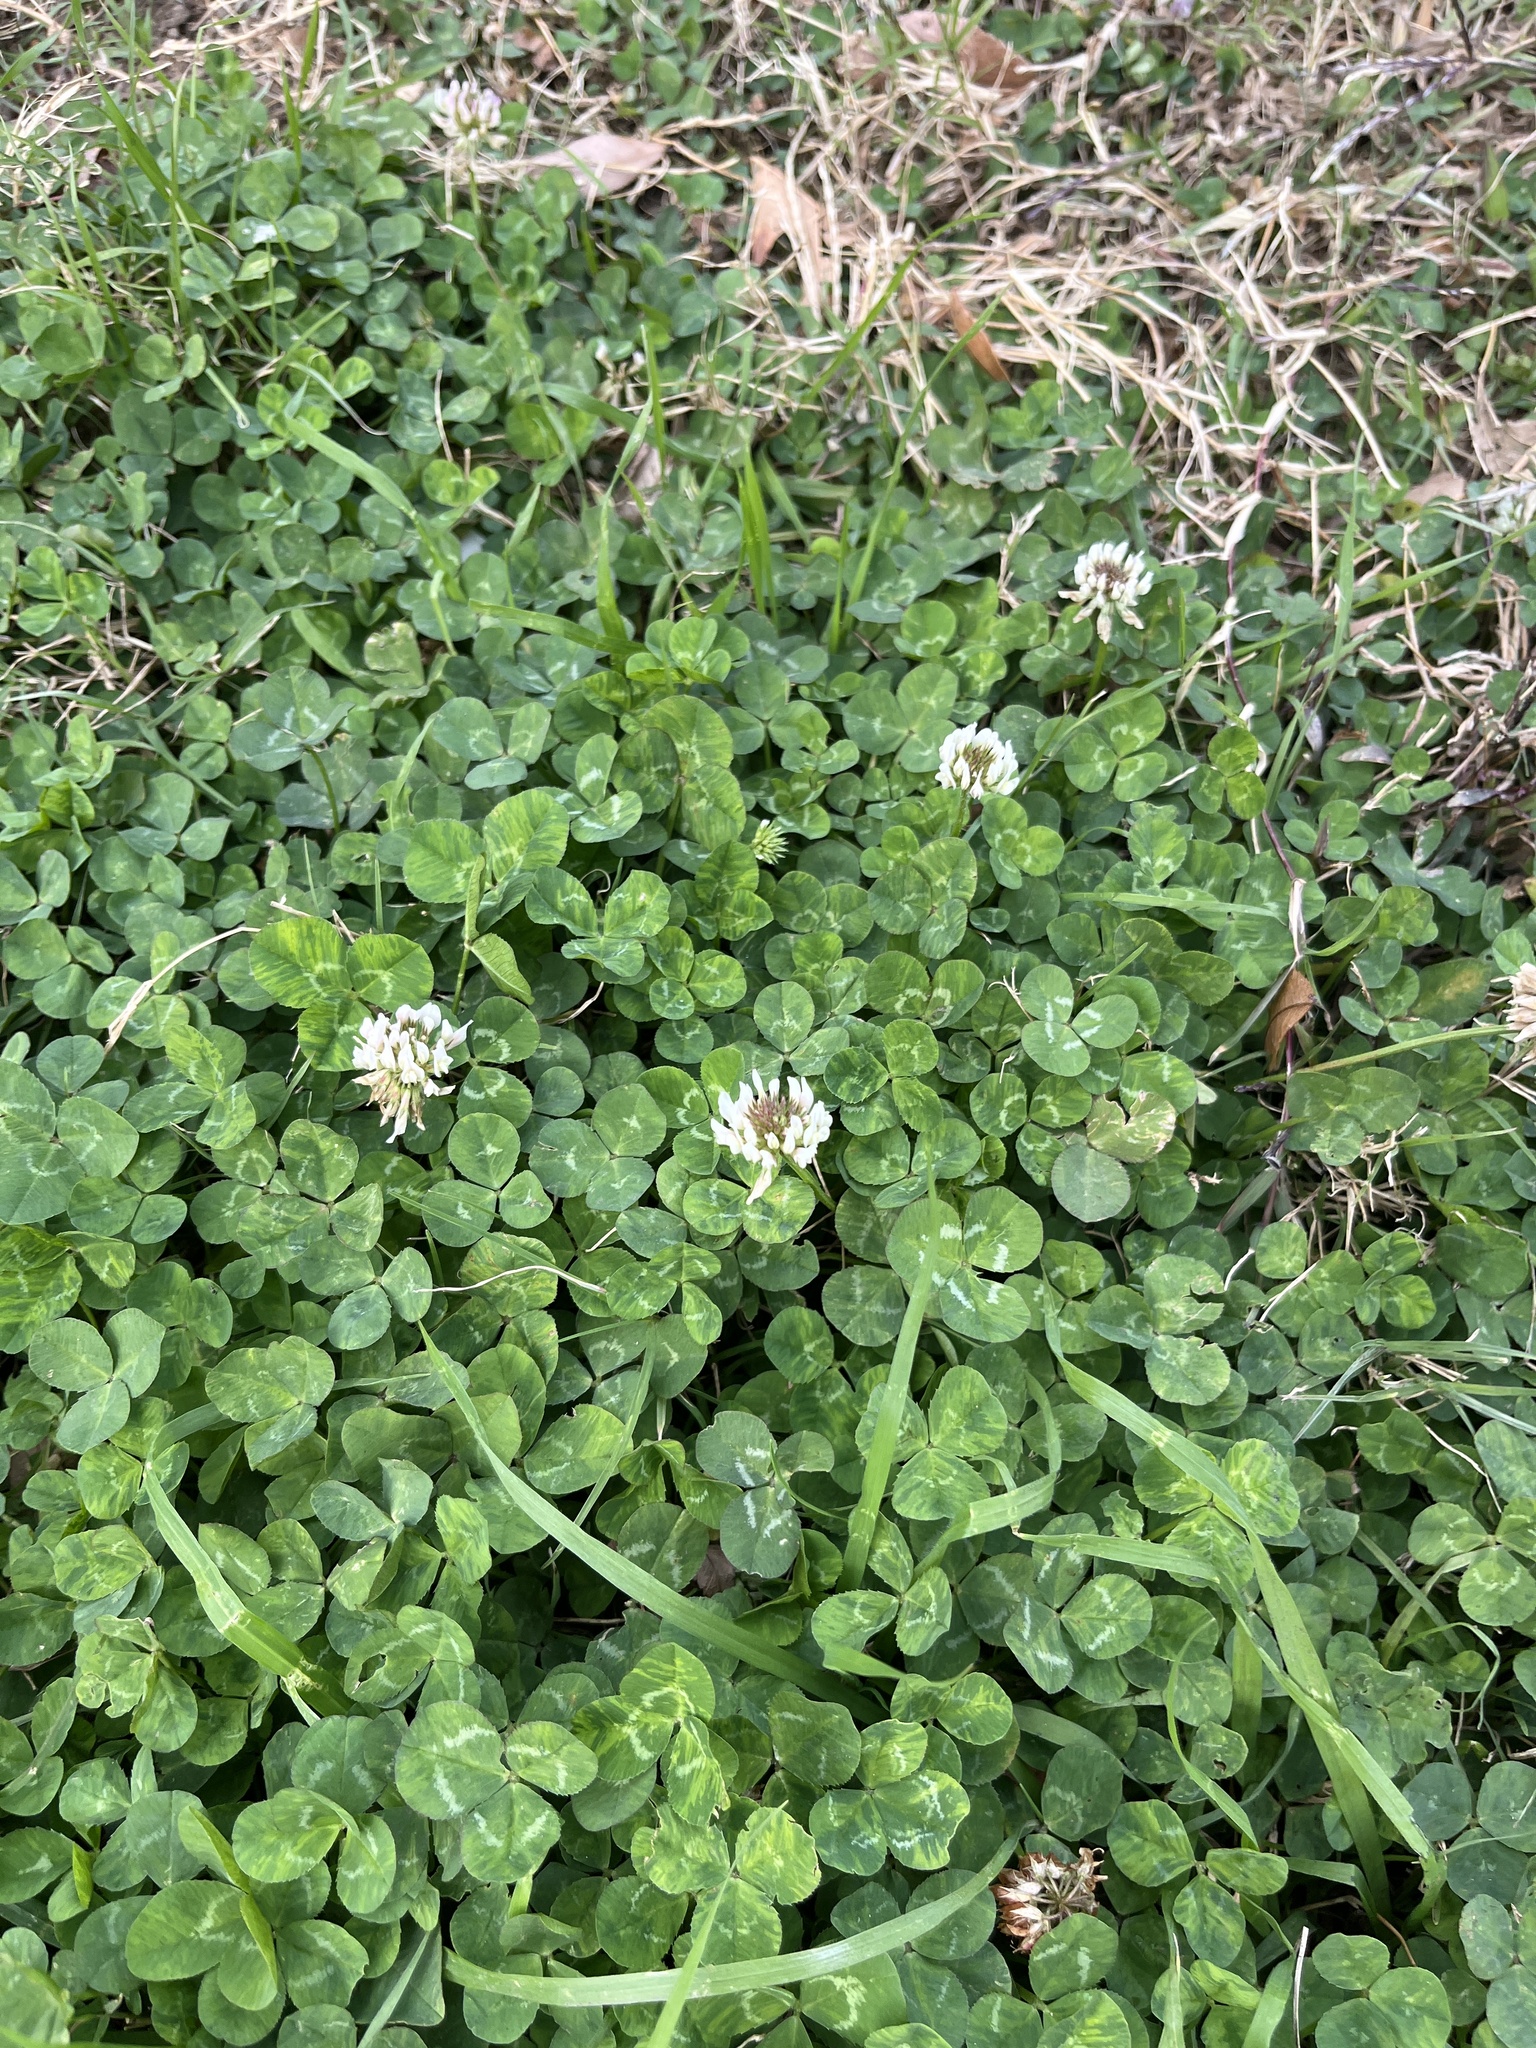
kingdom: Plantae
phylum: Tracheophyta
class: Magnoliopsida
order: Fabales
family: Fabaceae
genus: Trifolium
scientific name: Trifolium repens
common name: White clover
